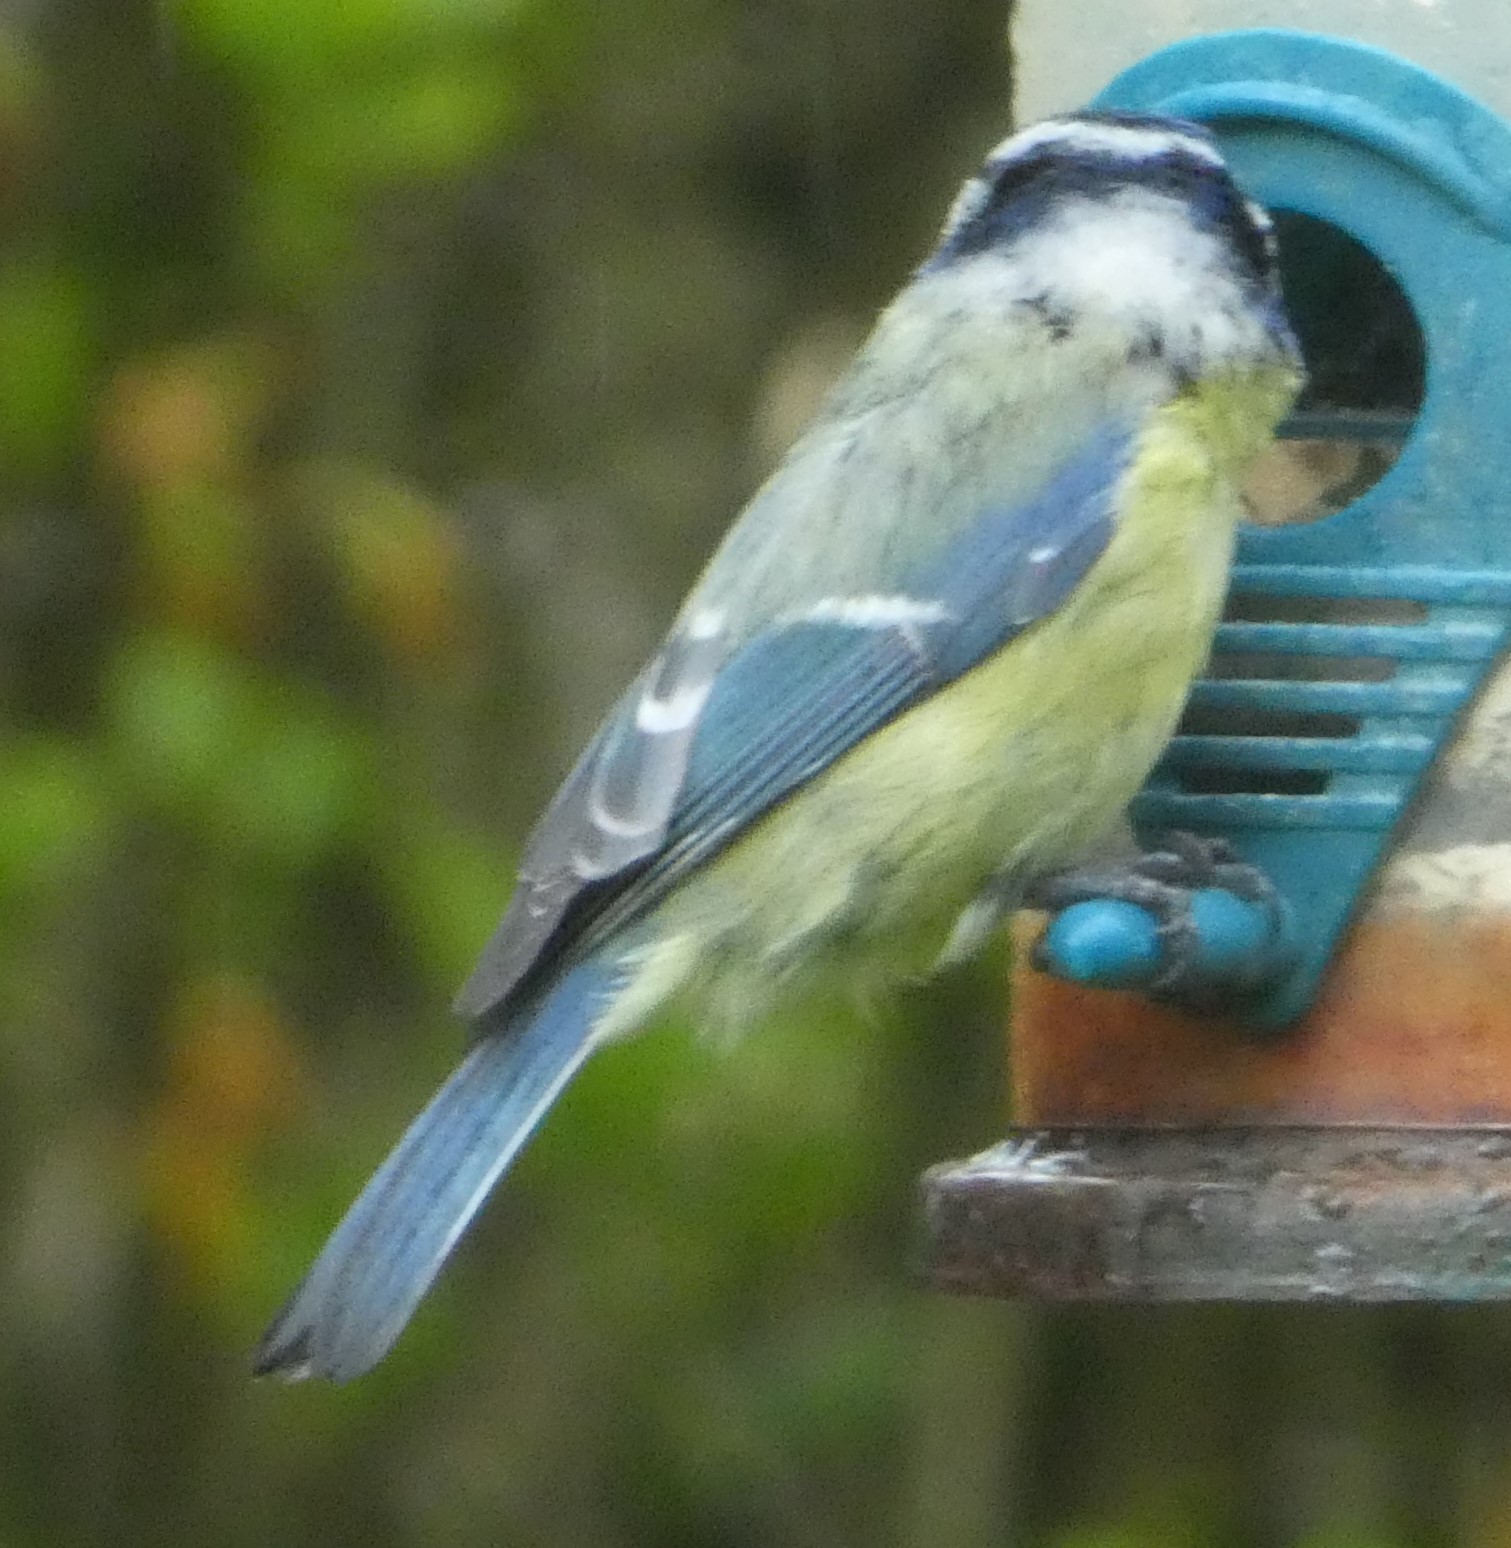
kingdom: Animalia
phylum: Chordata
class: Aves
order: Passeriformes
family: Paridae
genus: Cyanistes
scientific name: Cyanistes caeruleus
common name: Eurasian blue tit
